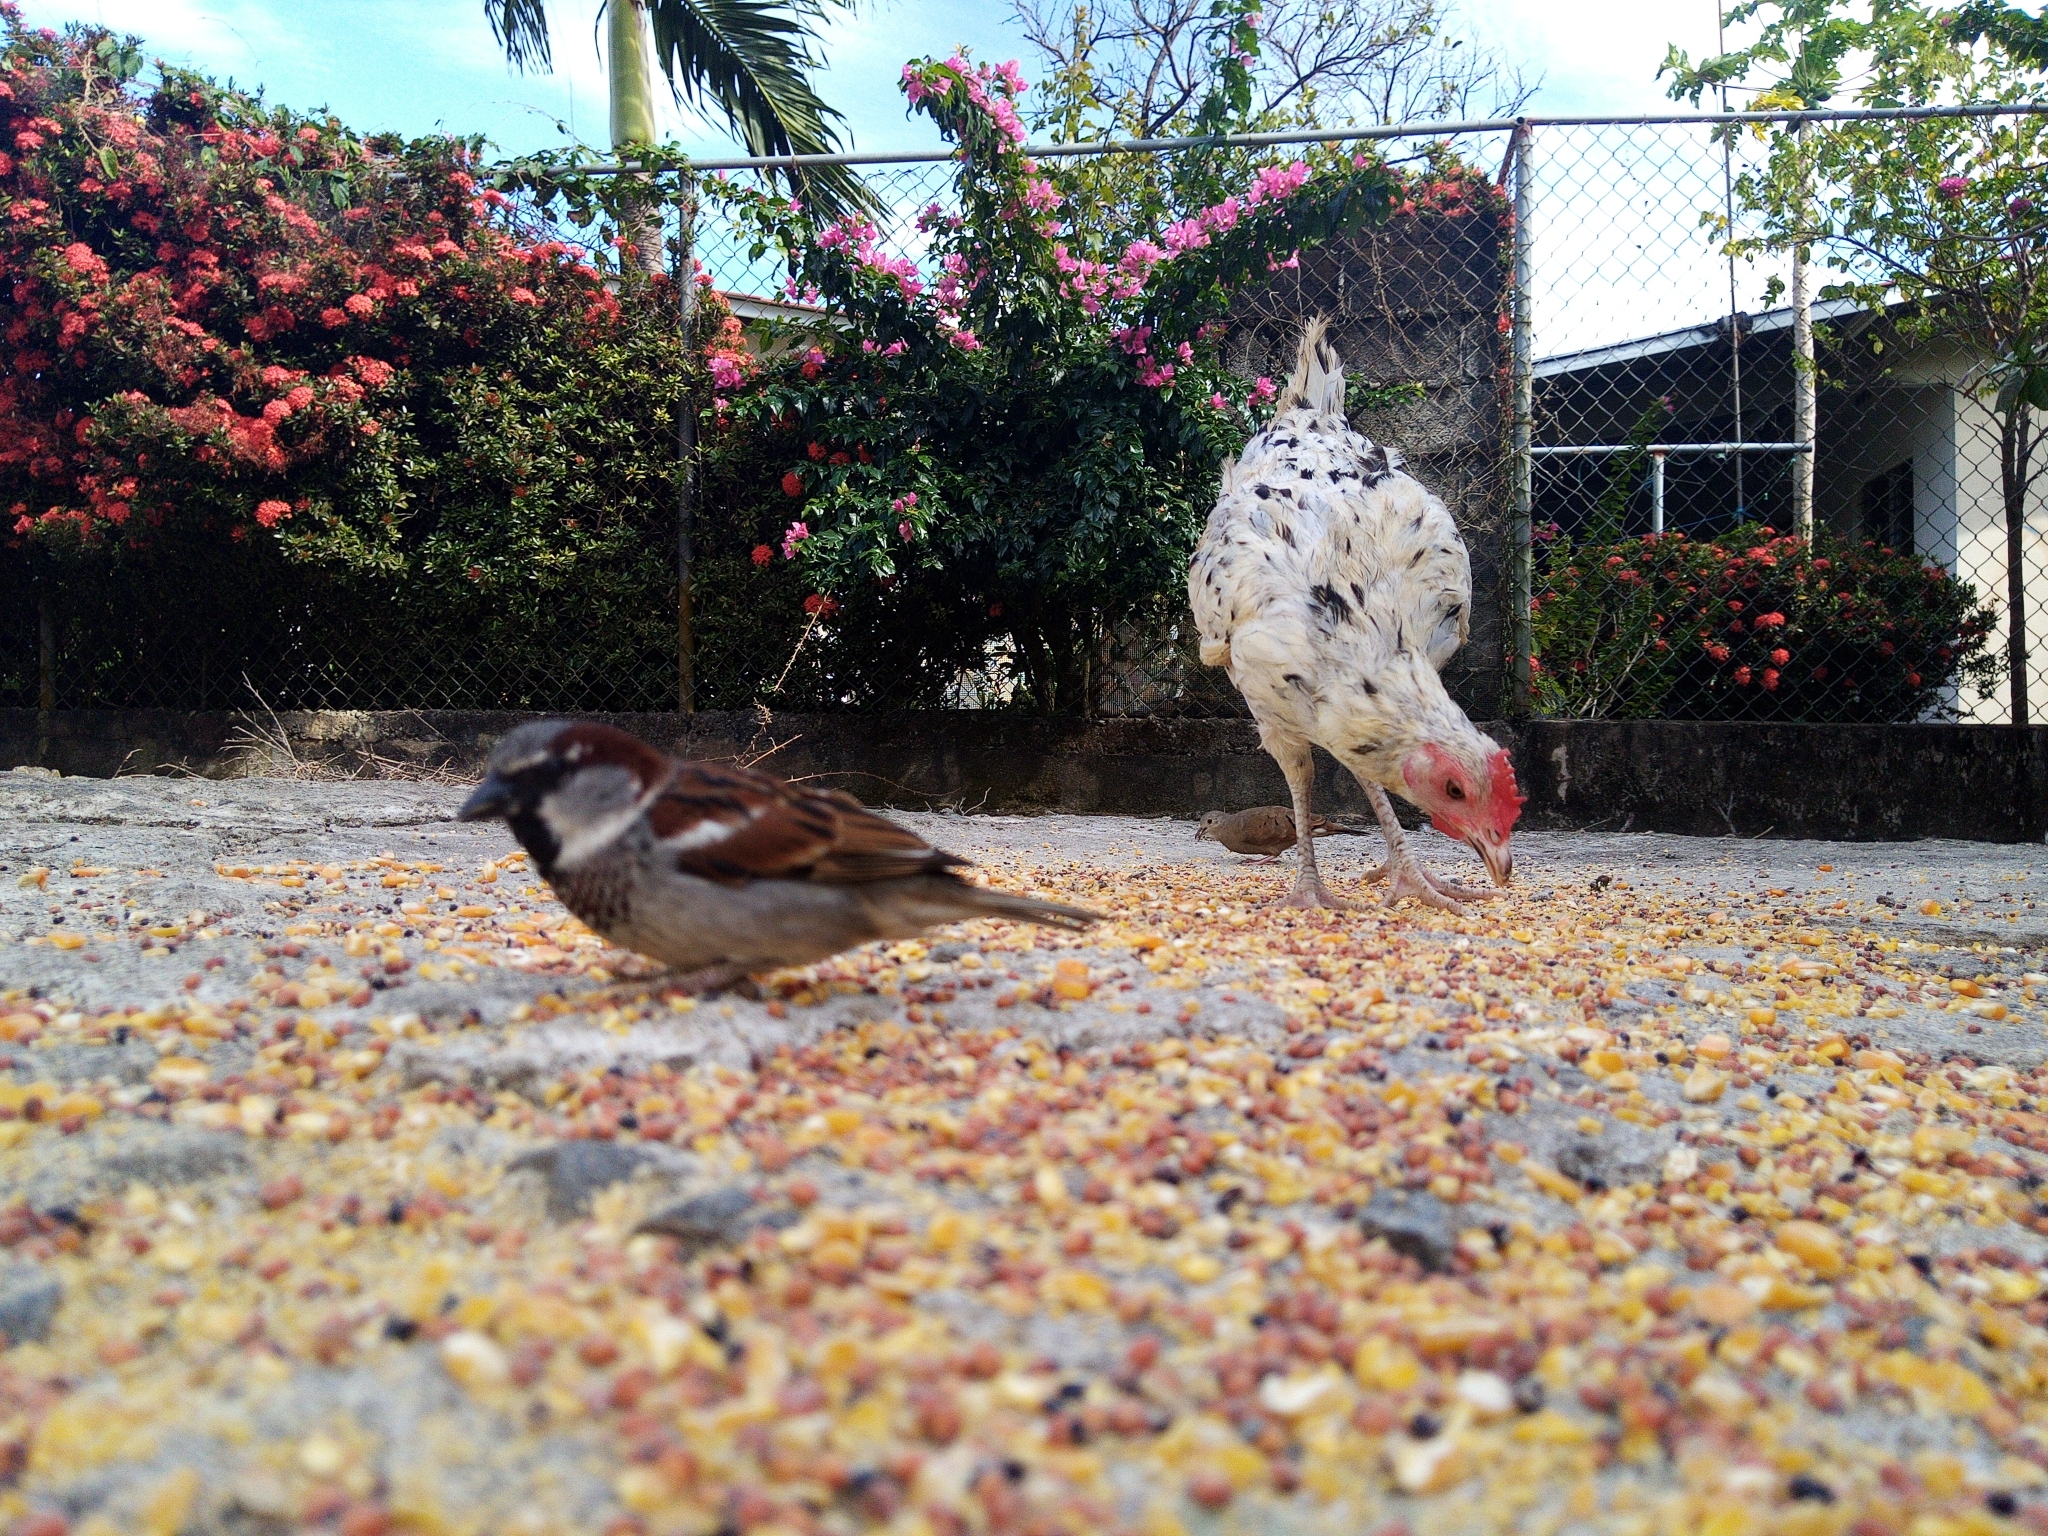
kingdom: Animalia
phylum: Chordata
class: Aves
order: Passeriformes
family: Passeridae
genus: Passer
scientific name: Passer domesticus
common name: House sparrow
